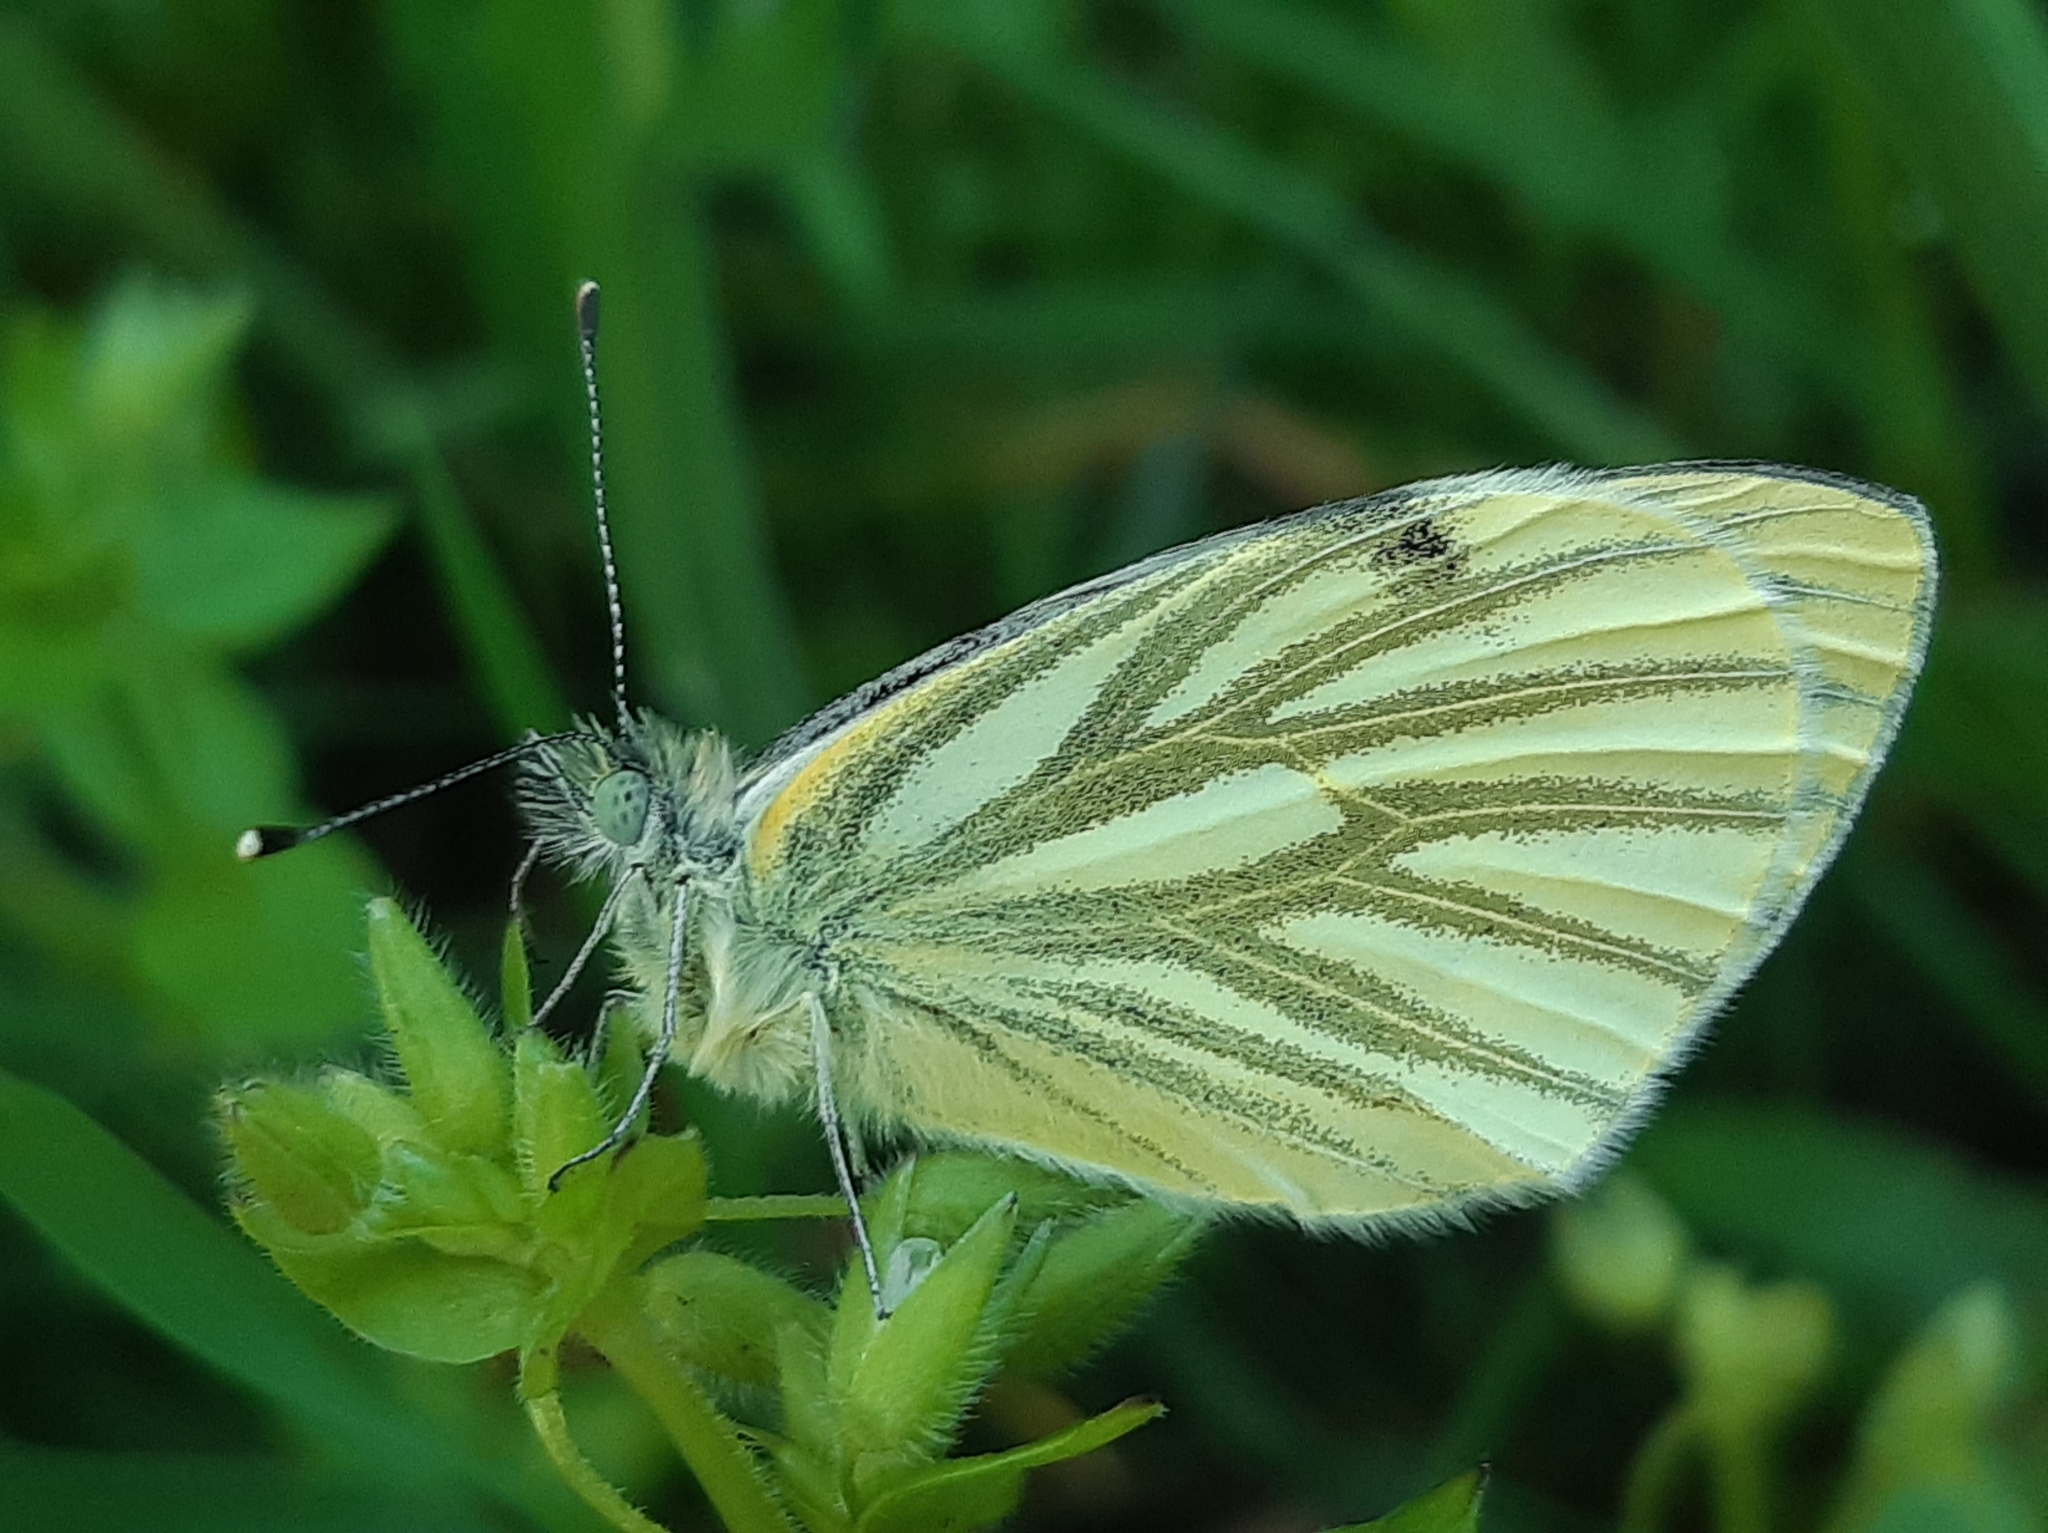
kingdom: Animalia
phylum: Arthropoda
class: Insecta
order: Lepidoptera
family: Pieridae
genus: Pieris
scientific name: Pieris napi
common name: Green-veined white
